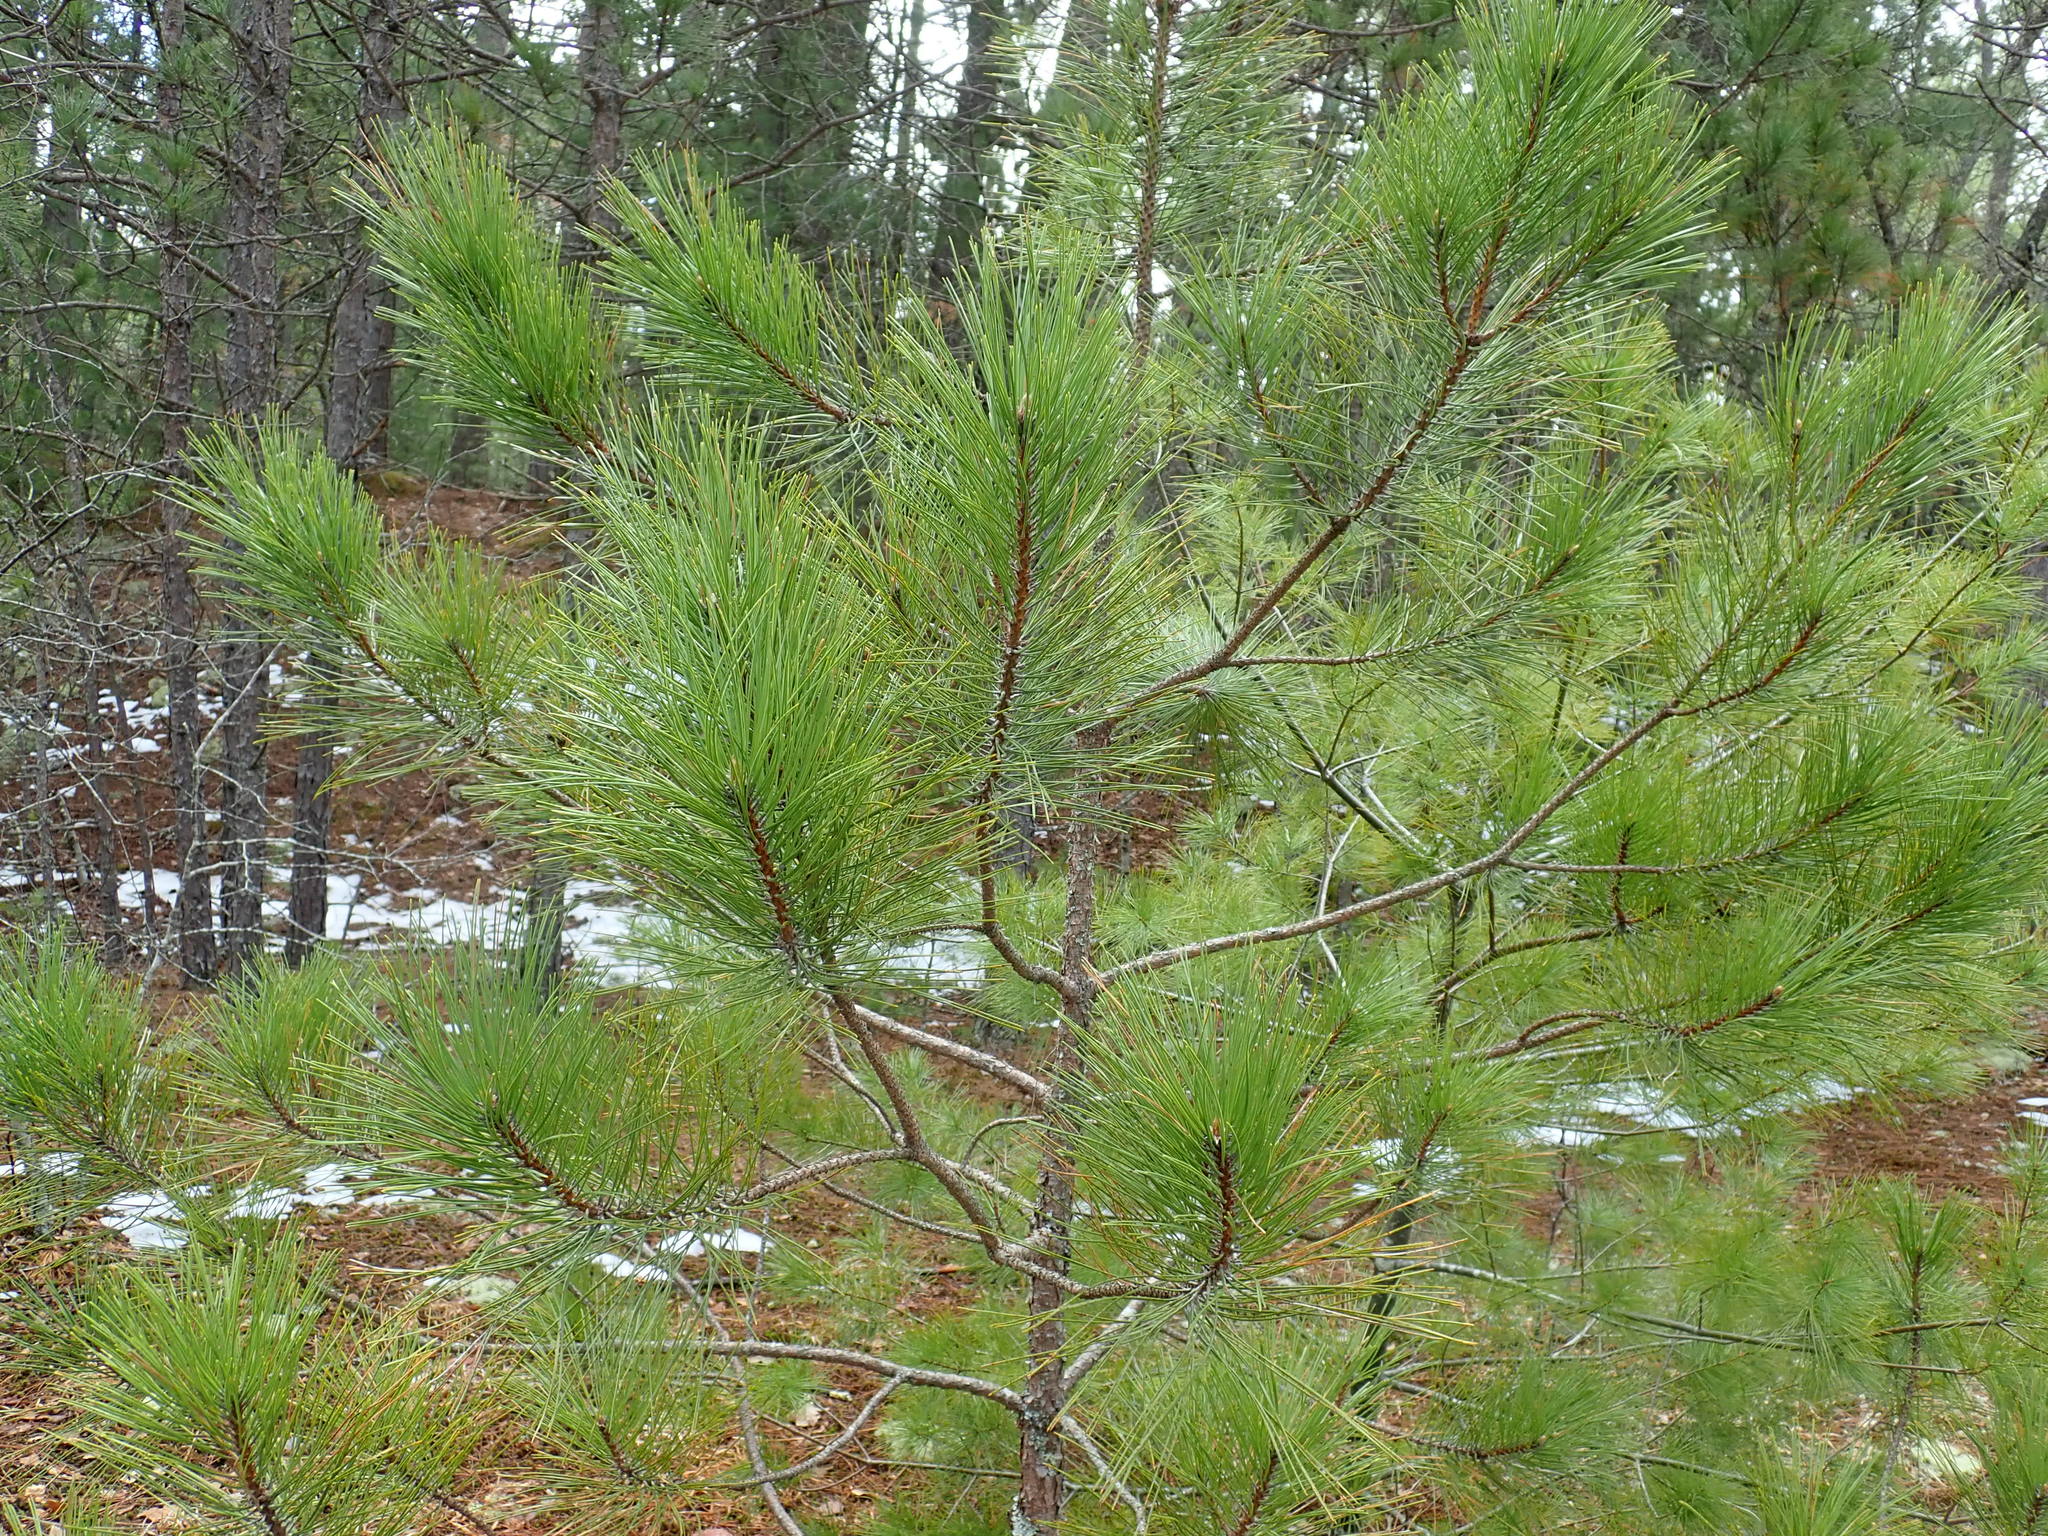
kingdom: Plantae
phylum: Tracheophyta
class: Pinopsida
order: Pinales
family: Pinaceae
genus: Pinus
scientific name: Pinus resinosa
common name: Norway pine
